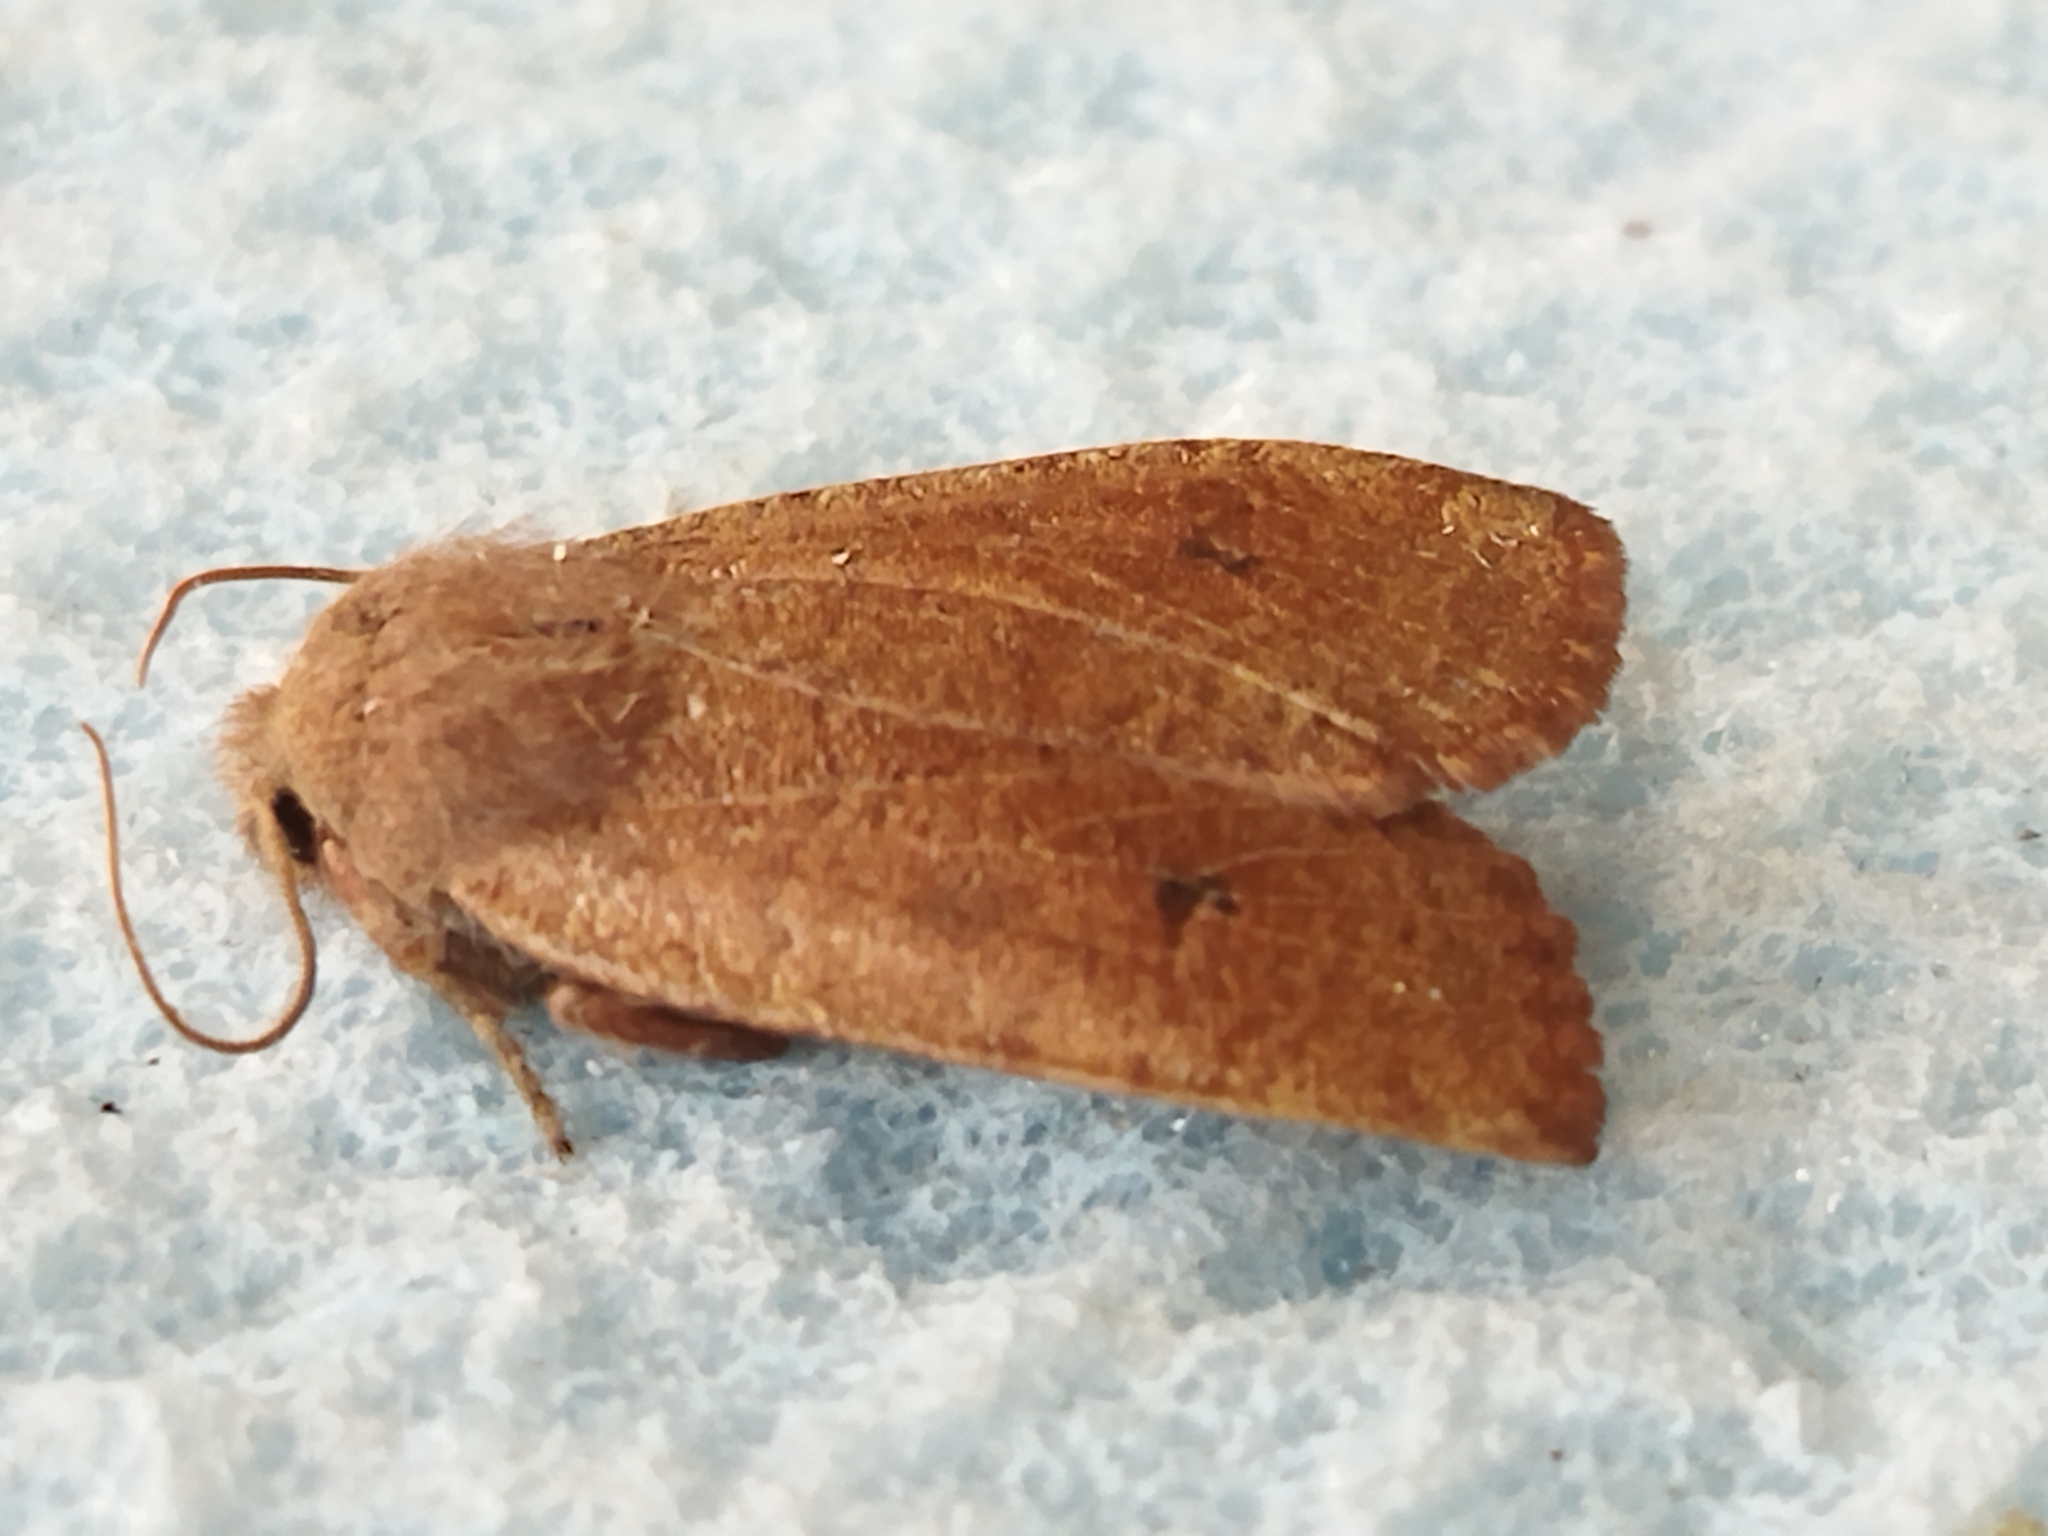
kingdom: Animalia
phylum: Arthropoda
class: Insecta
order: Lepidoptera
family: Noctuidae
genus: Conistra
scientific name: Conistra vaccinii
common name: Chestnut
